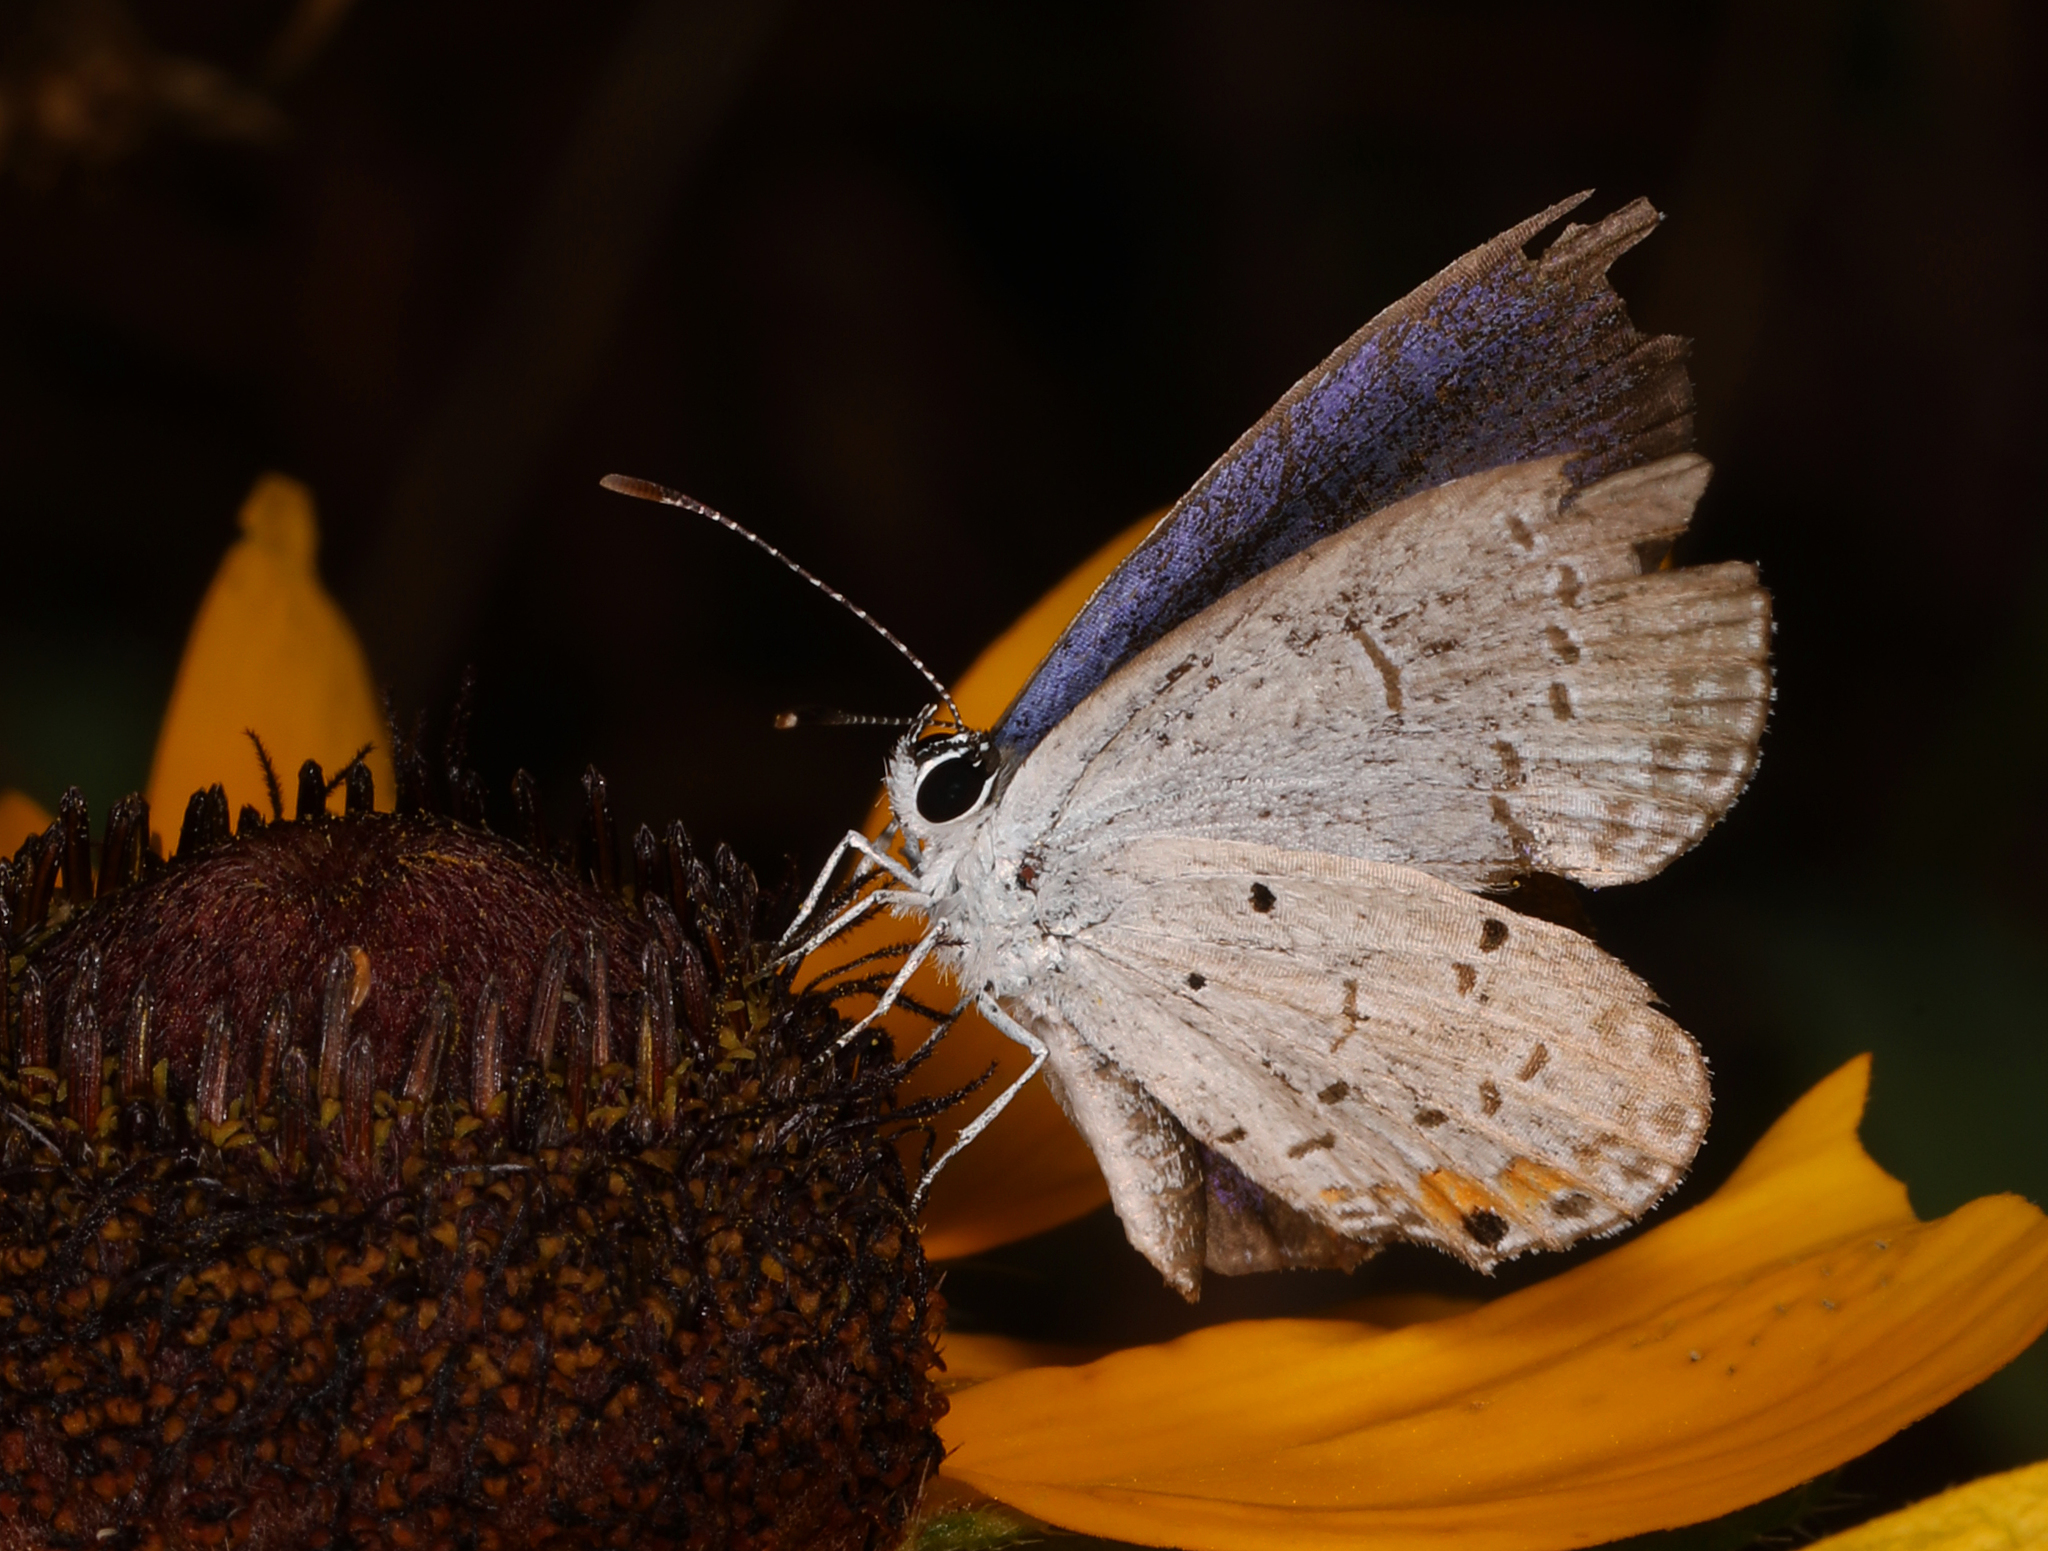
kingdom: Animalia
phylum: Arthropoda
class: Insecta
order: Lepidoptera
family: Lycaenidae
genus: Elkalyce
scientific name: Elkalyce comyntas
